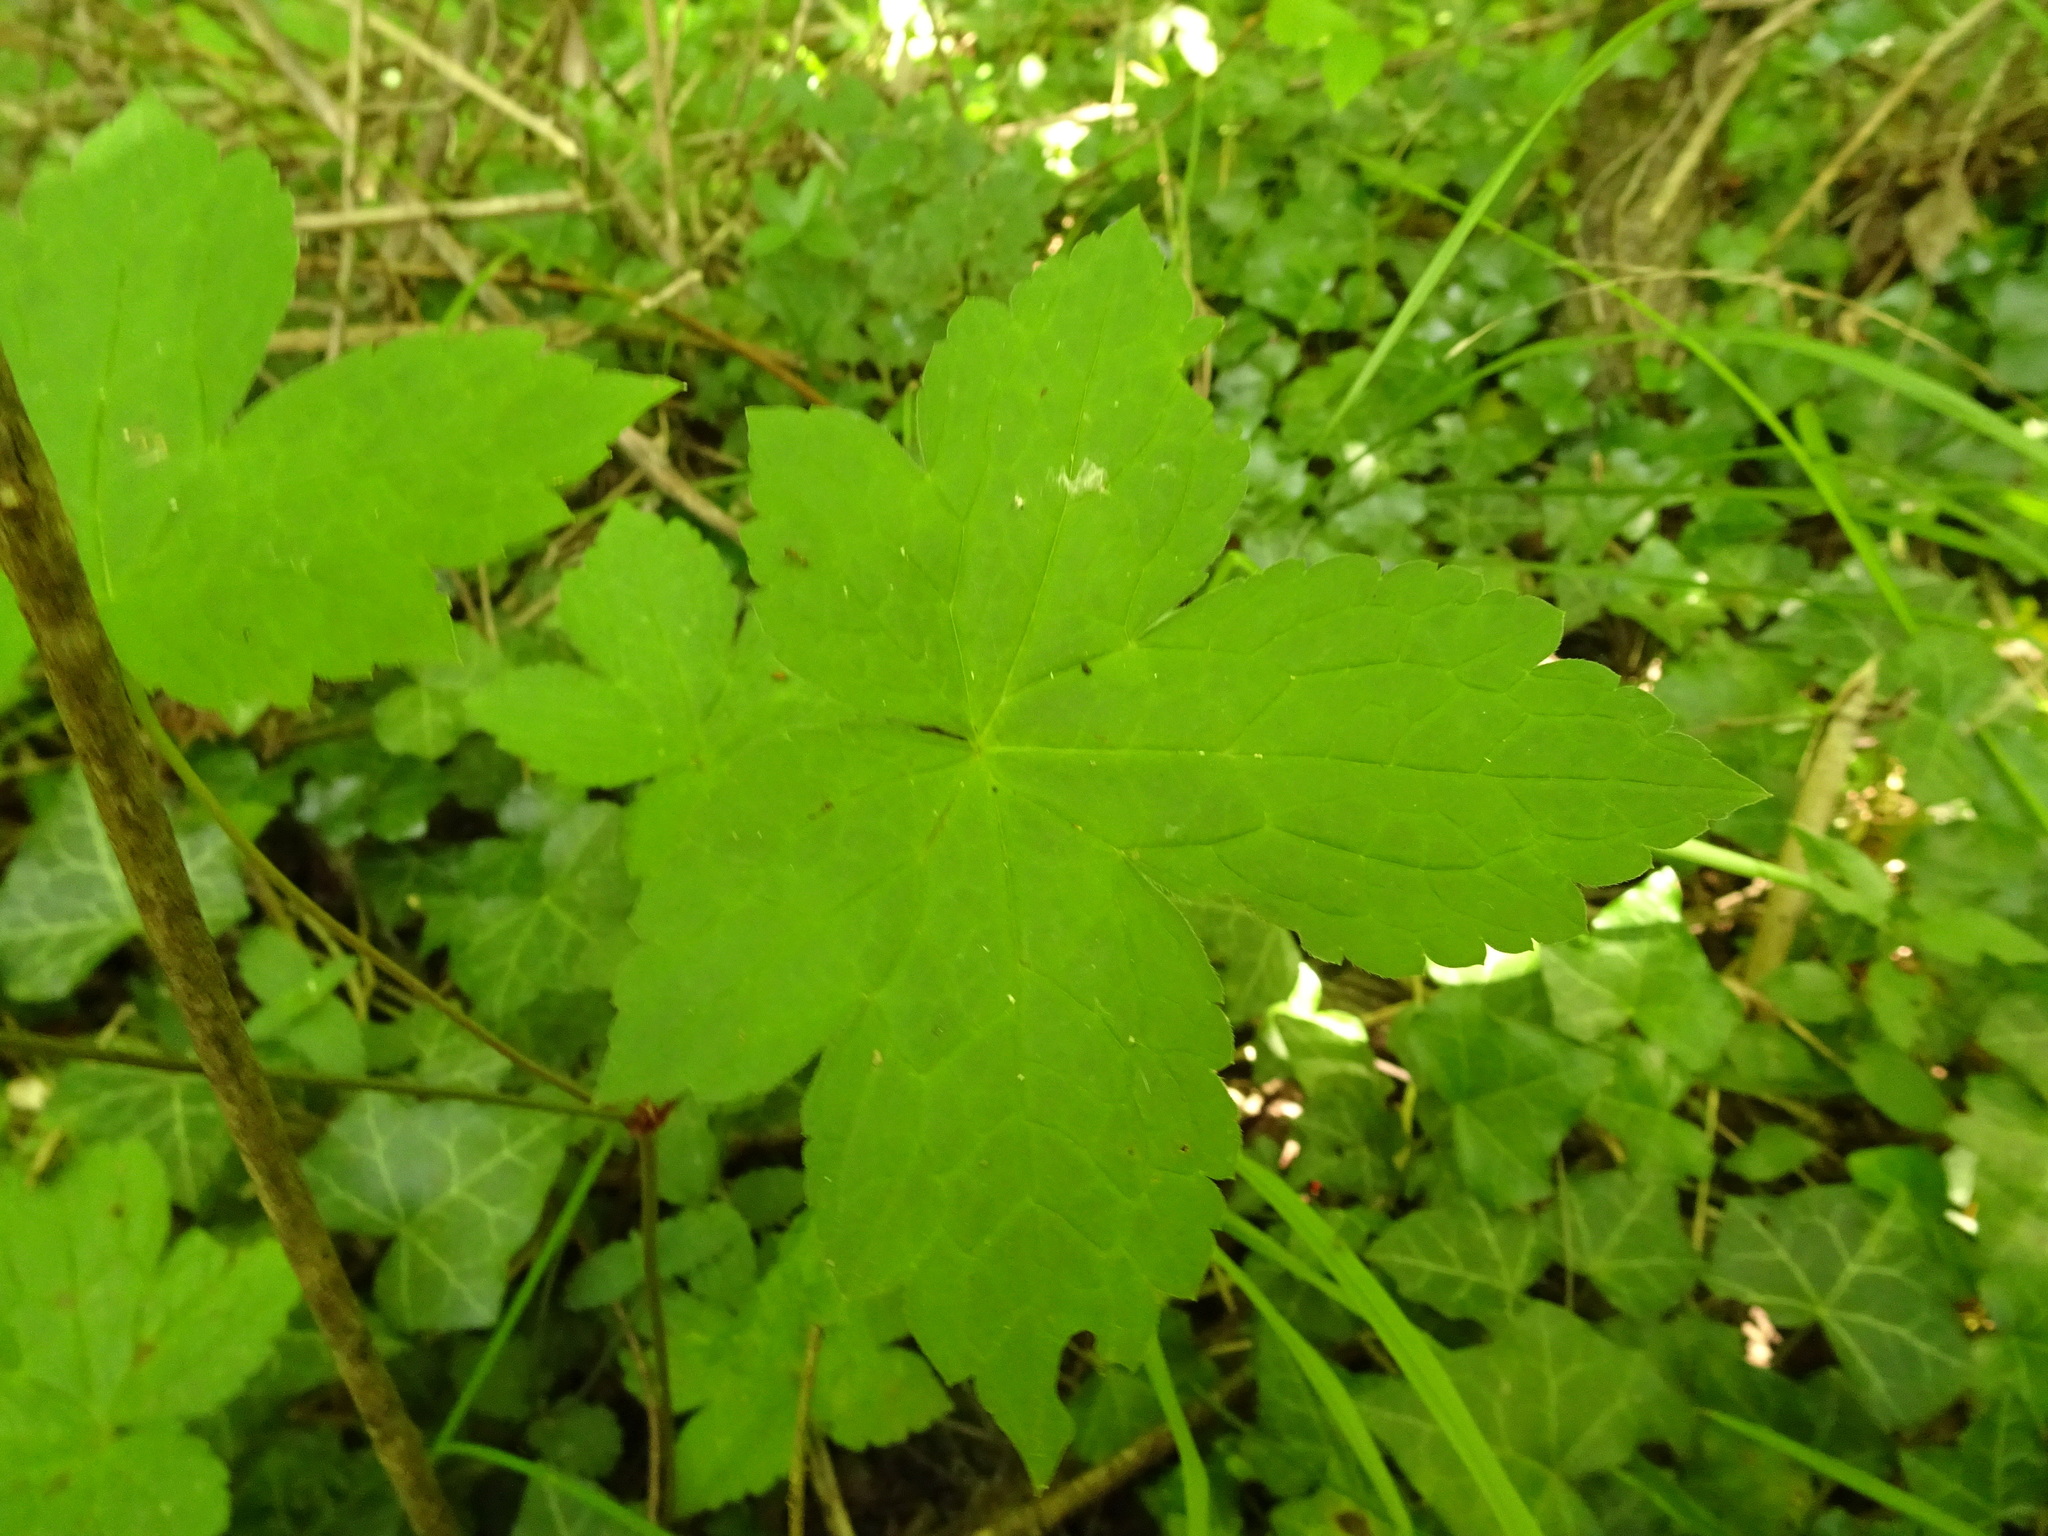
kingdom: Plantae
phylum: Tracheophyta
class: Magnoliopsida
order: Geraniales
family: Geraniaceae
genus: Geranium
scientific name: Geranium nodosum
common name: Knotted crane's-bill
